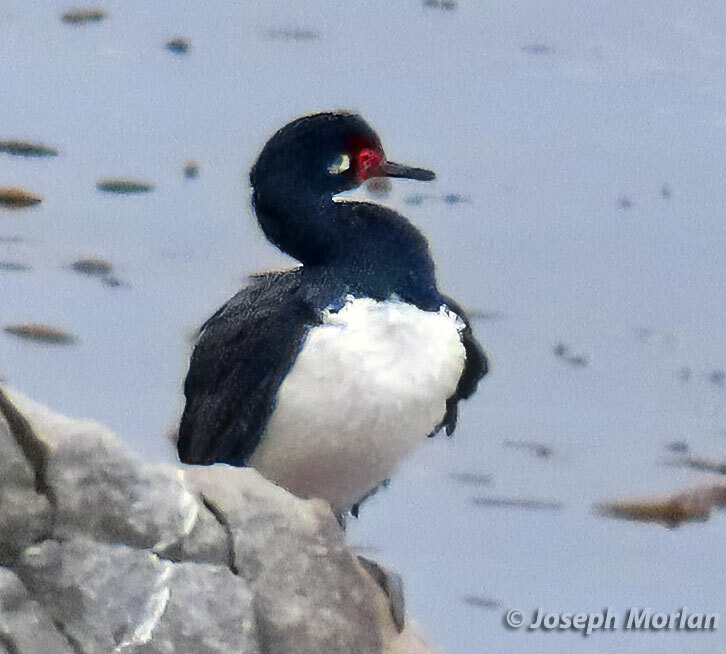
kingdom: Animalia
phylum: Chordata
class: Aves
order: Suliformes
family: Phalacrocoracidae
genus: Phalacrocorax
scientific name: Phalacrocorax magellanicus
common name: Rock shag
